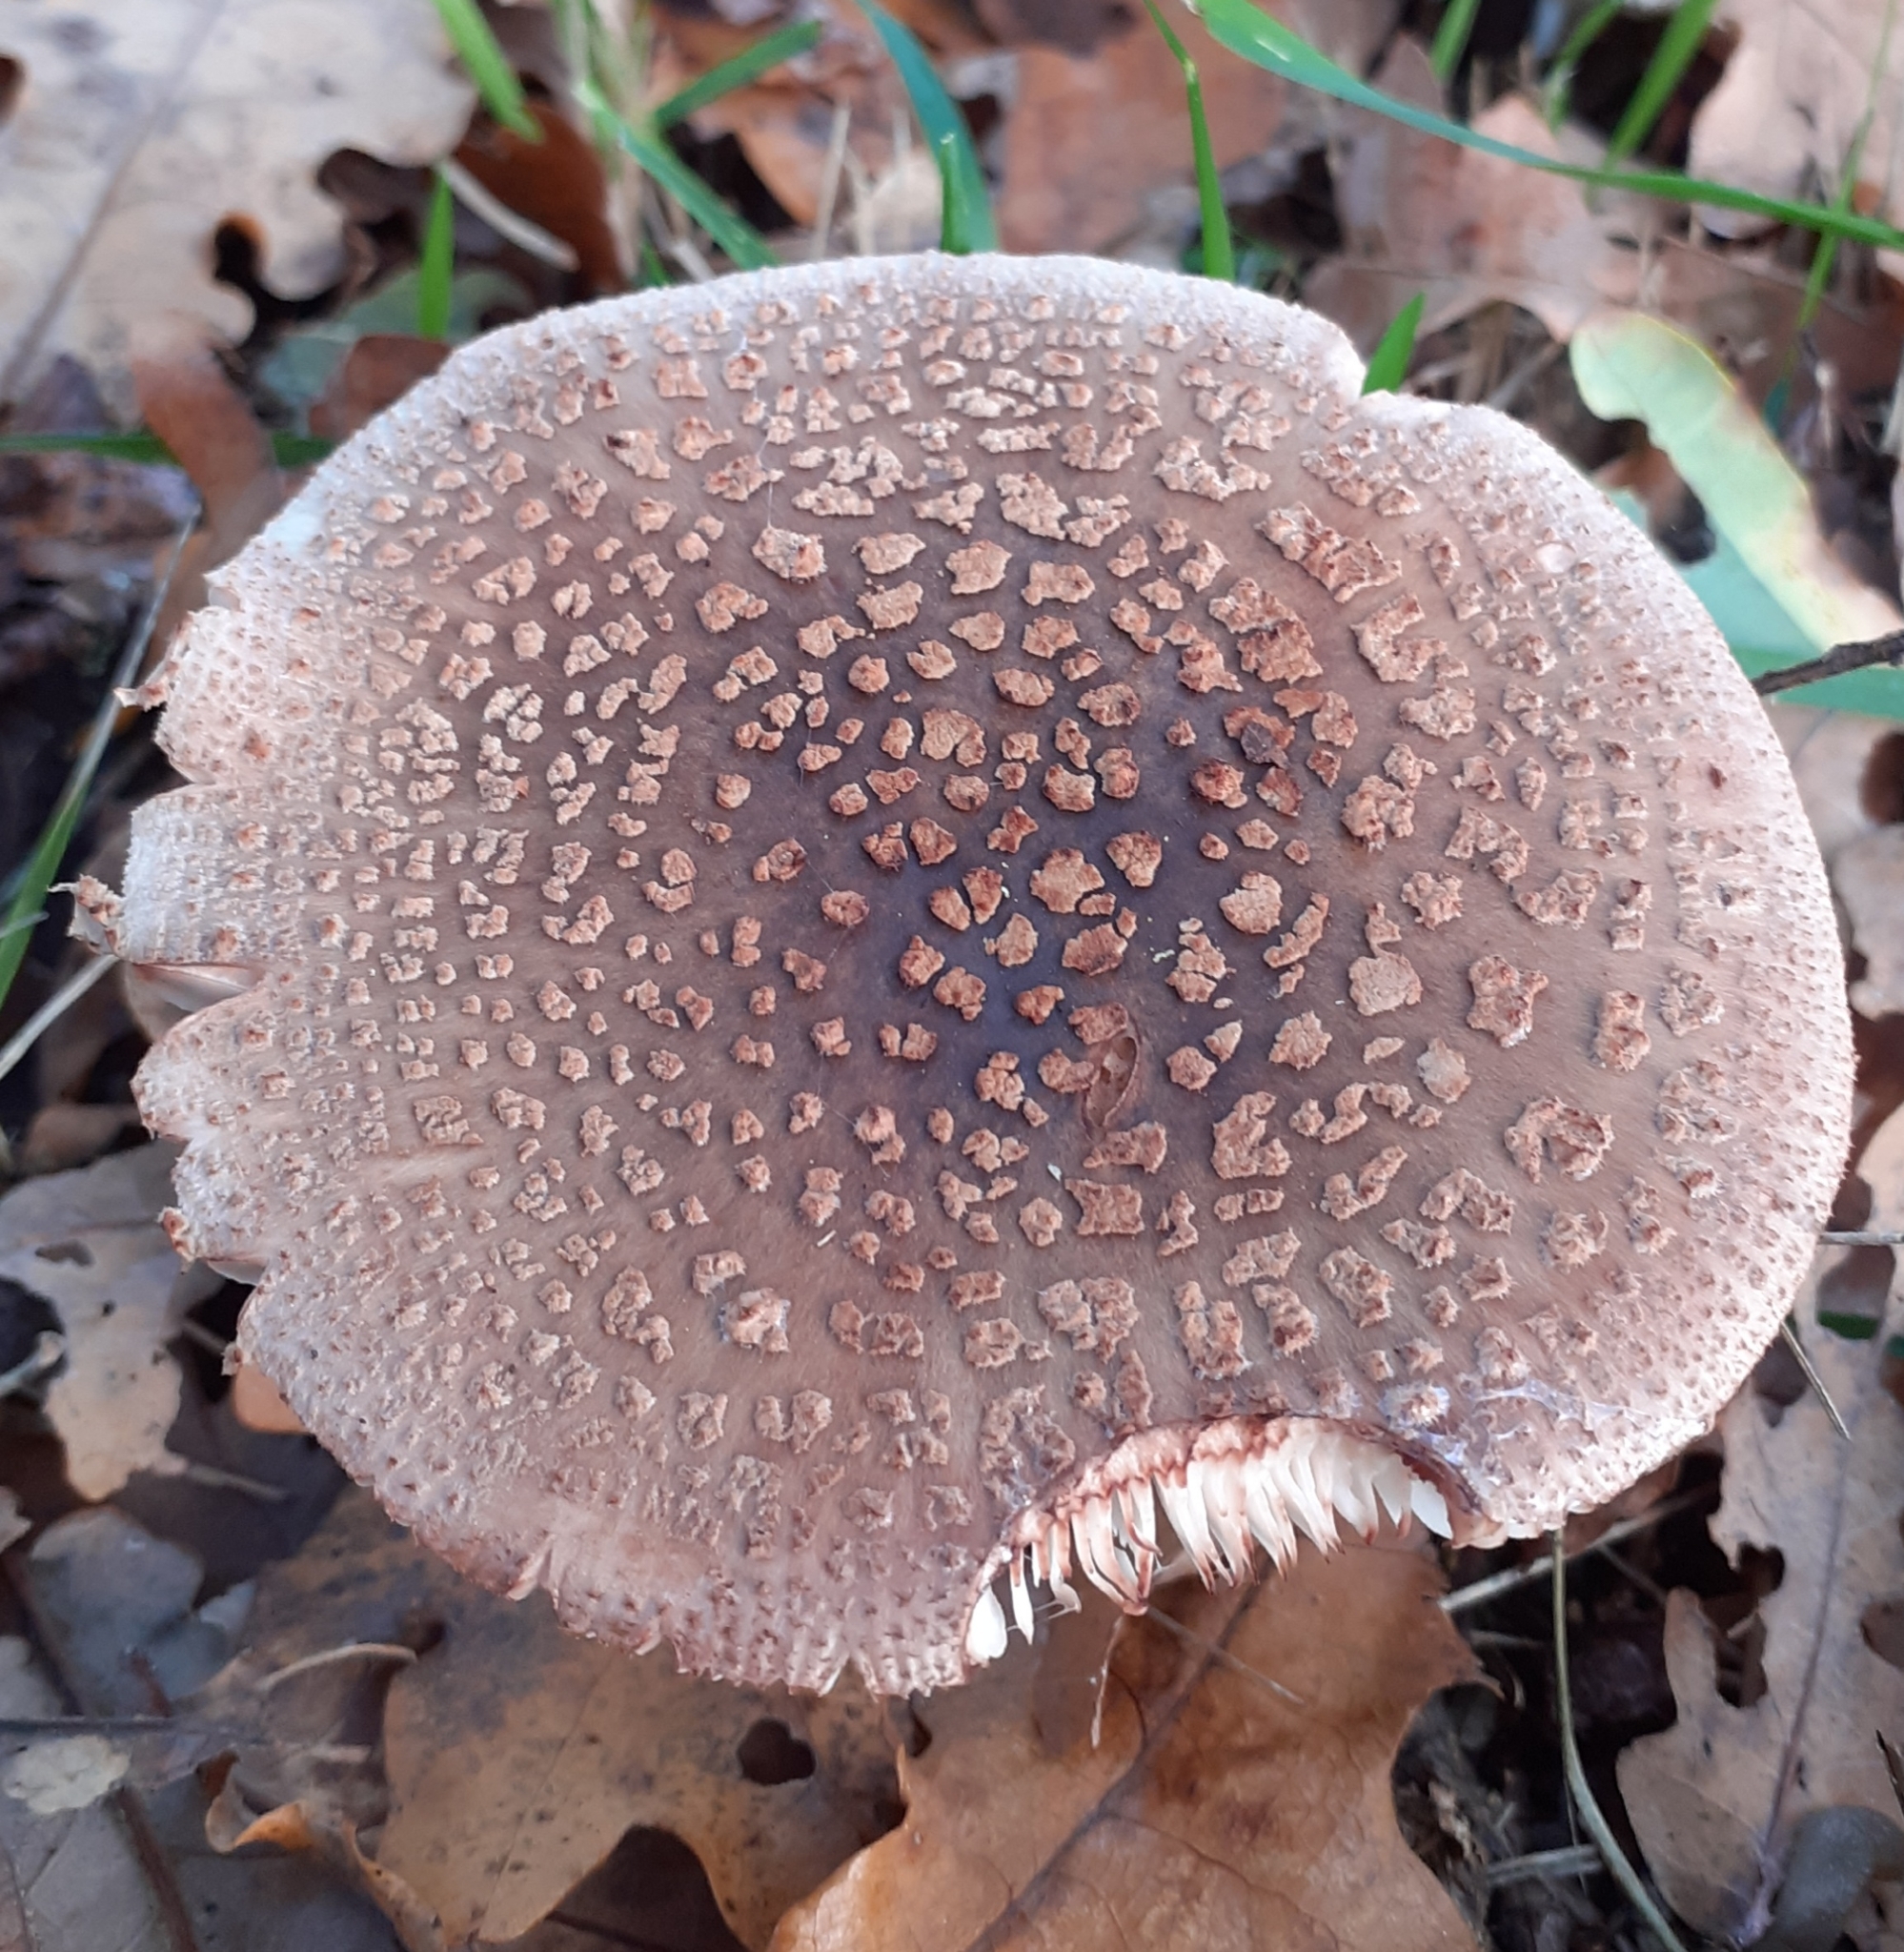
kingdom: Fungi
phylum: Basidiomycota
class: Agaricomycetes
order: Agaricales
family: Amanitaceae
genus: Amanita
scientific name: Amanita rubescens
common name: Blusher
